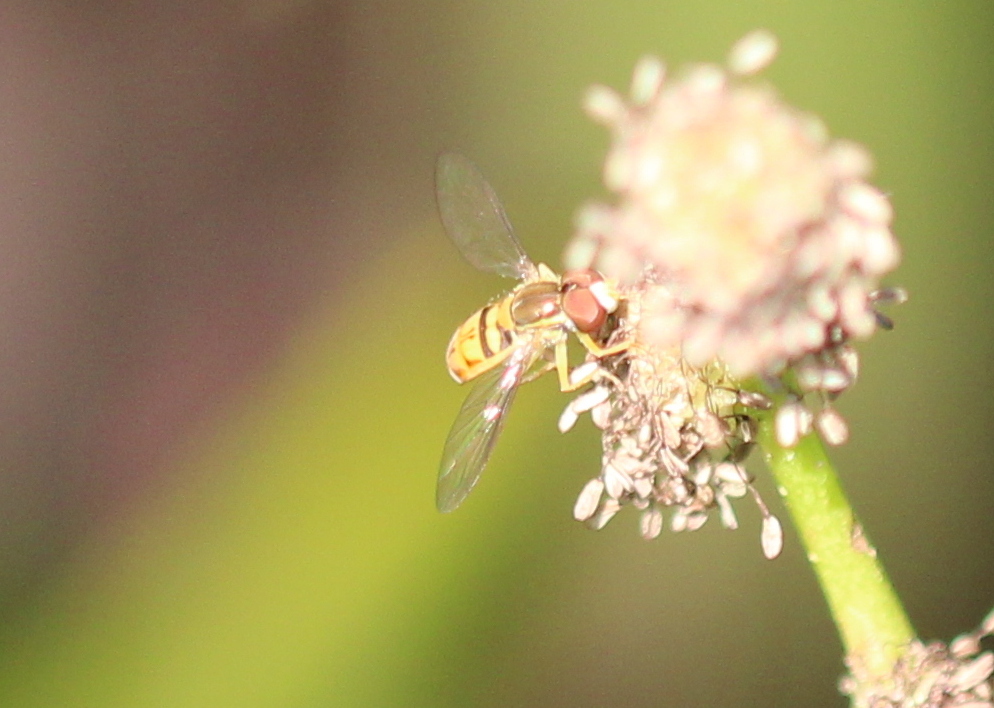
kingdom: Animalia
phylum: Arthropoda
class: Insecta
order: Diptera
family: Syrphidae
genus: Toxomerus
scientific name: Toxomerus marginatus
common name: Syrphid fly
